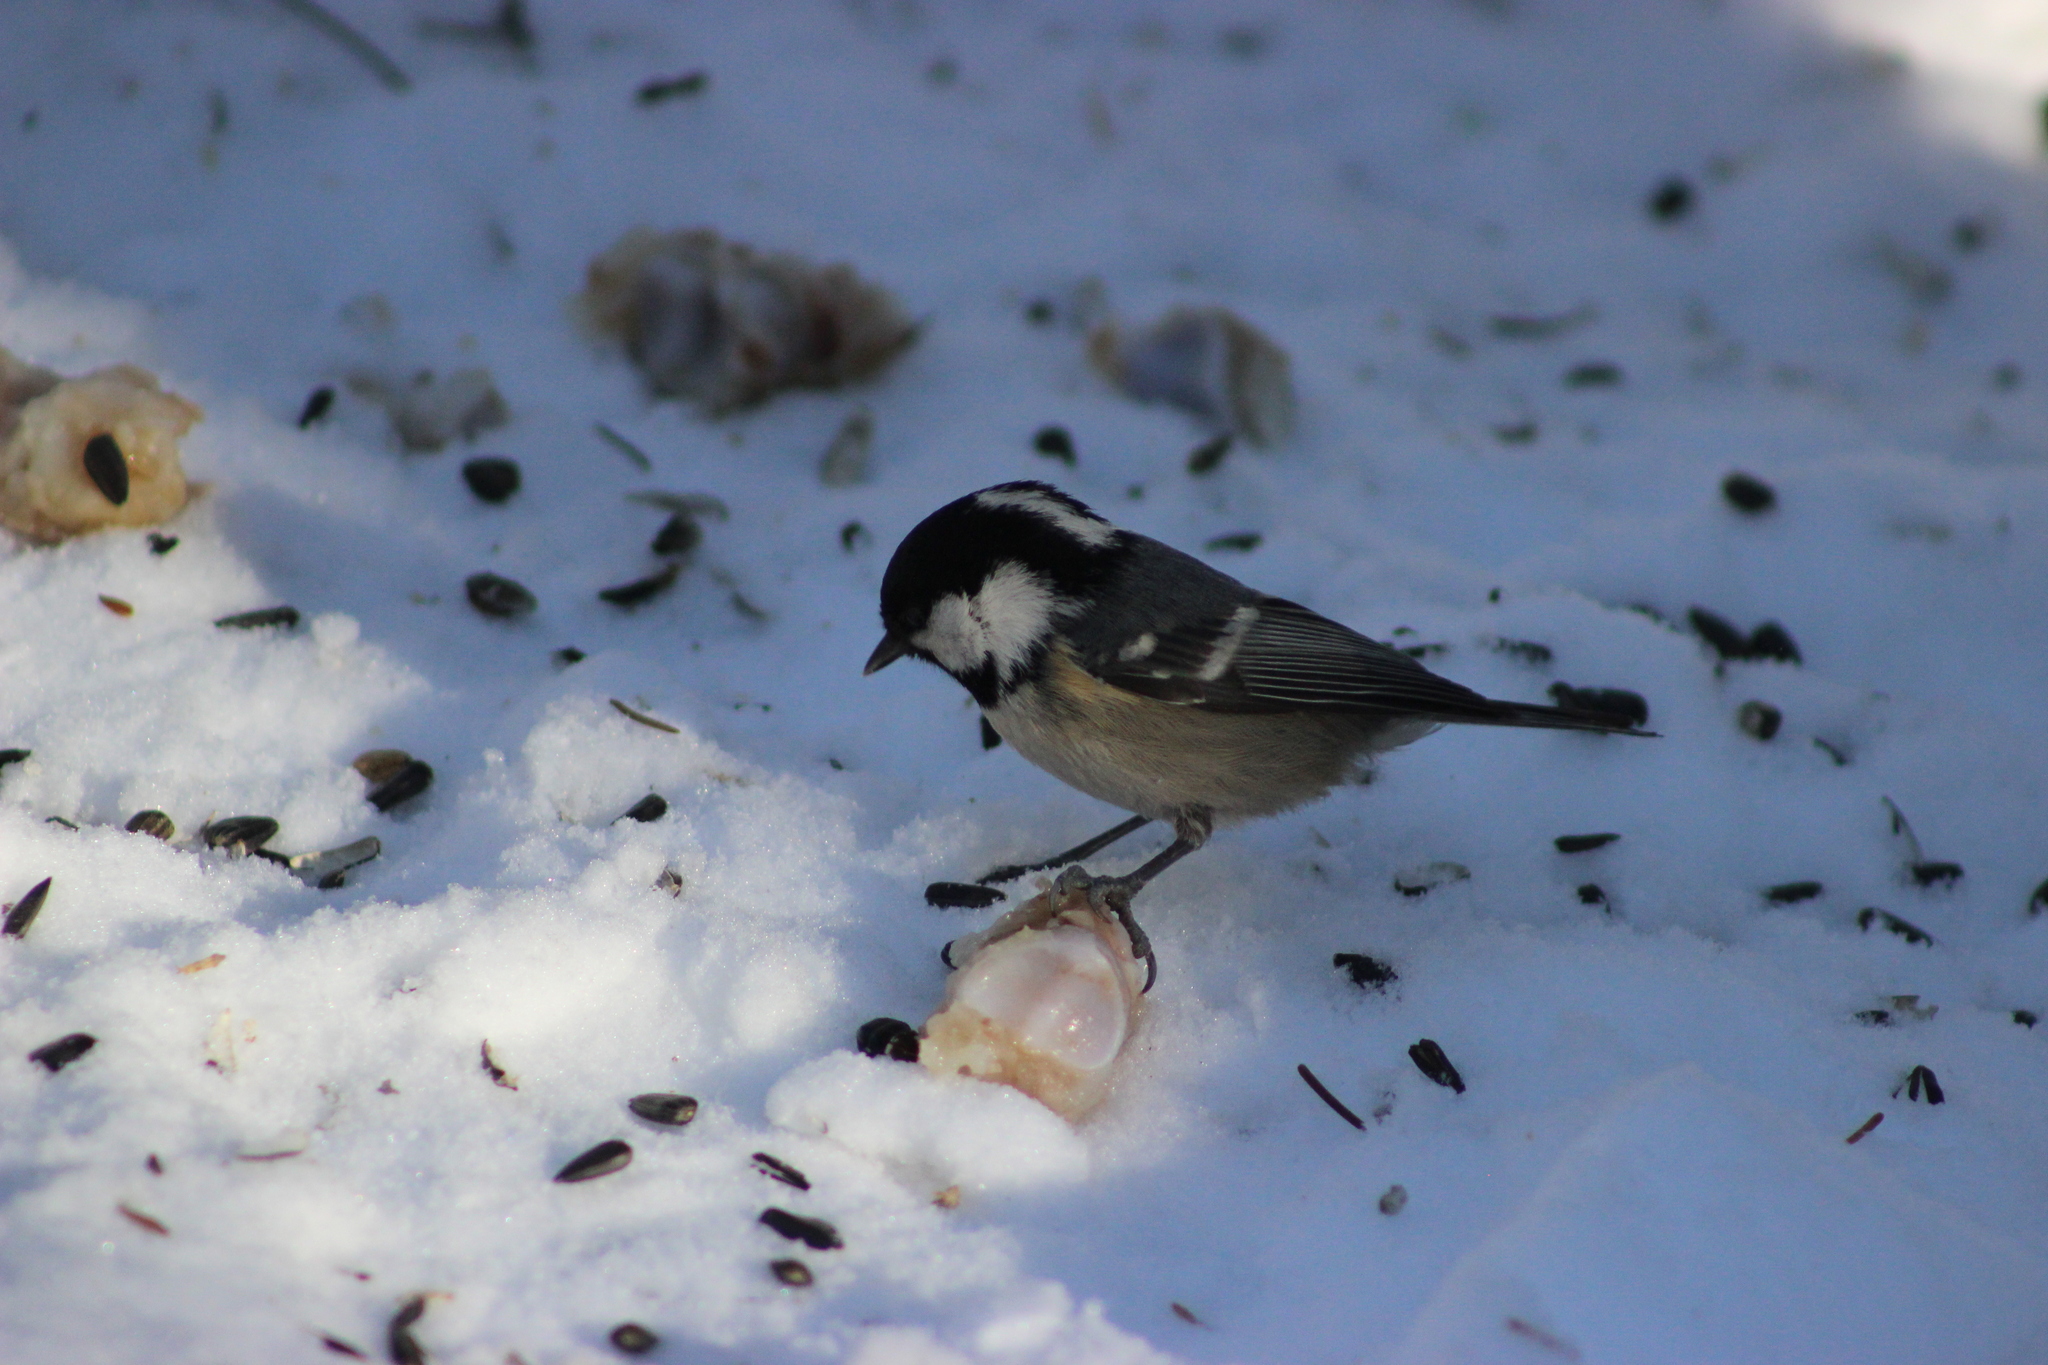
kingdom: Animalia
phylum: Chordata
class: Aves
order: Passeriformes
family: Paridae
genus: Periparus
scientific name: Periparus ater
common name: Coal tit
